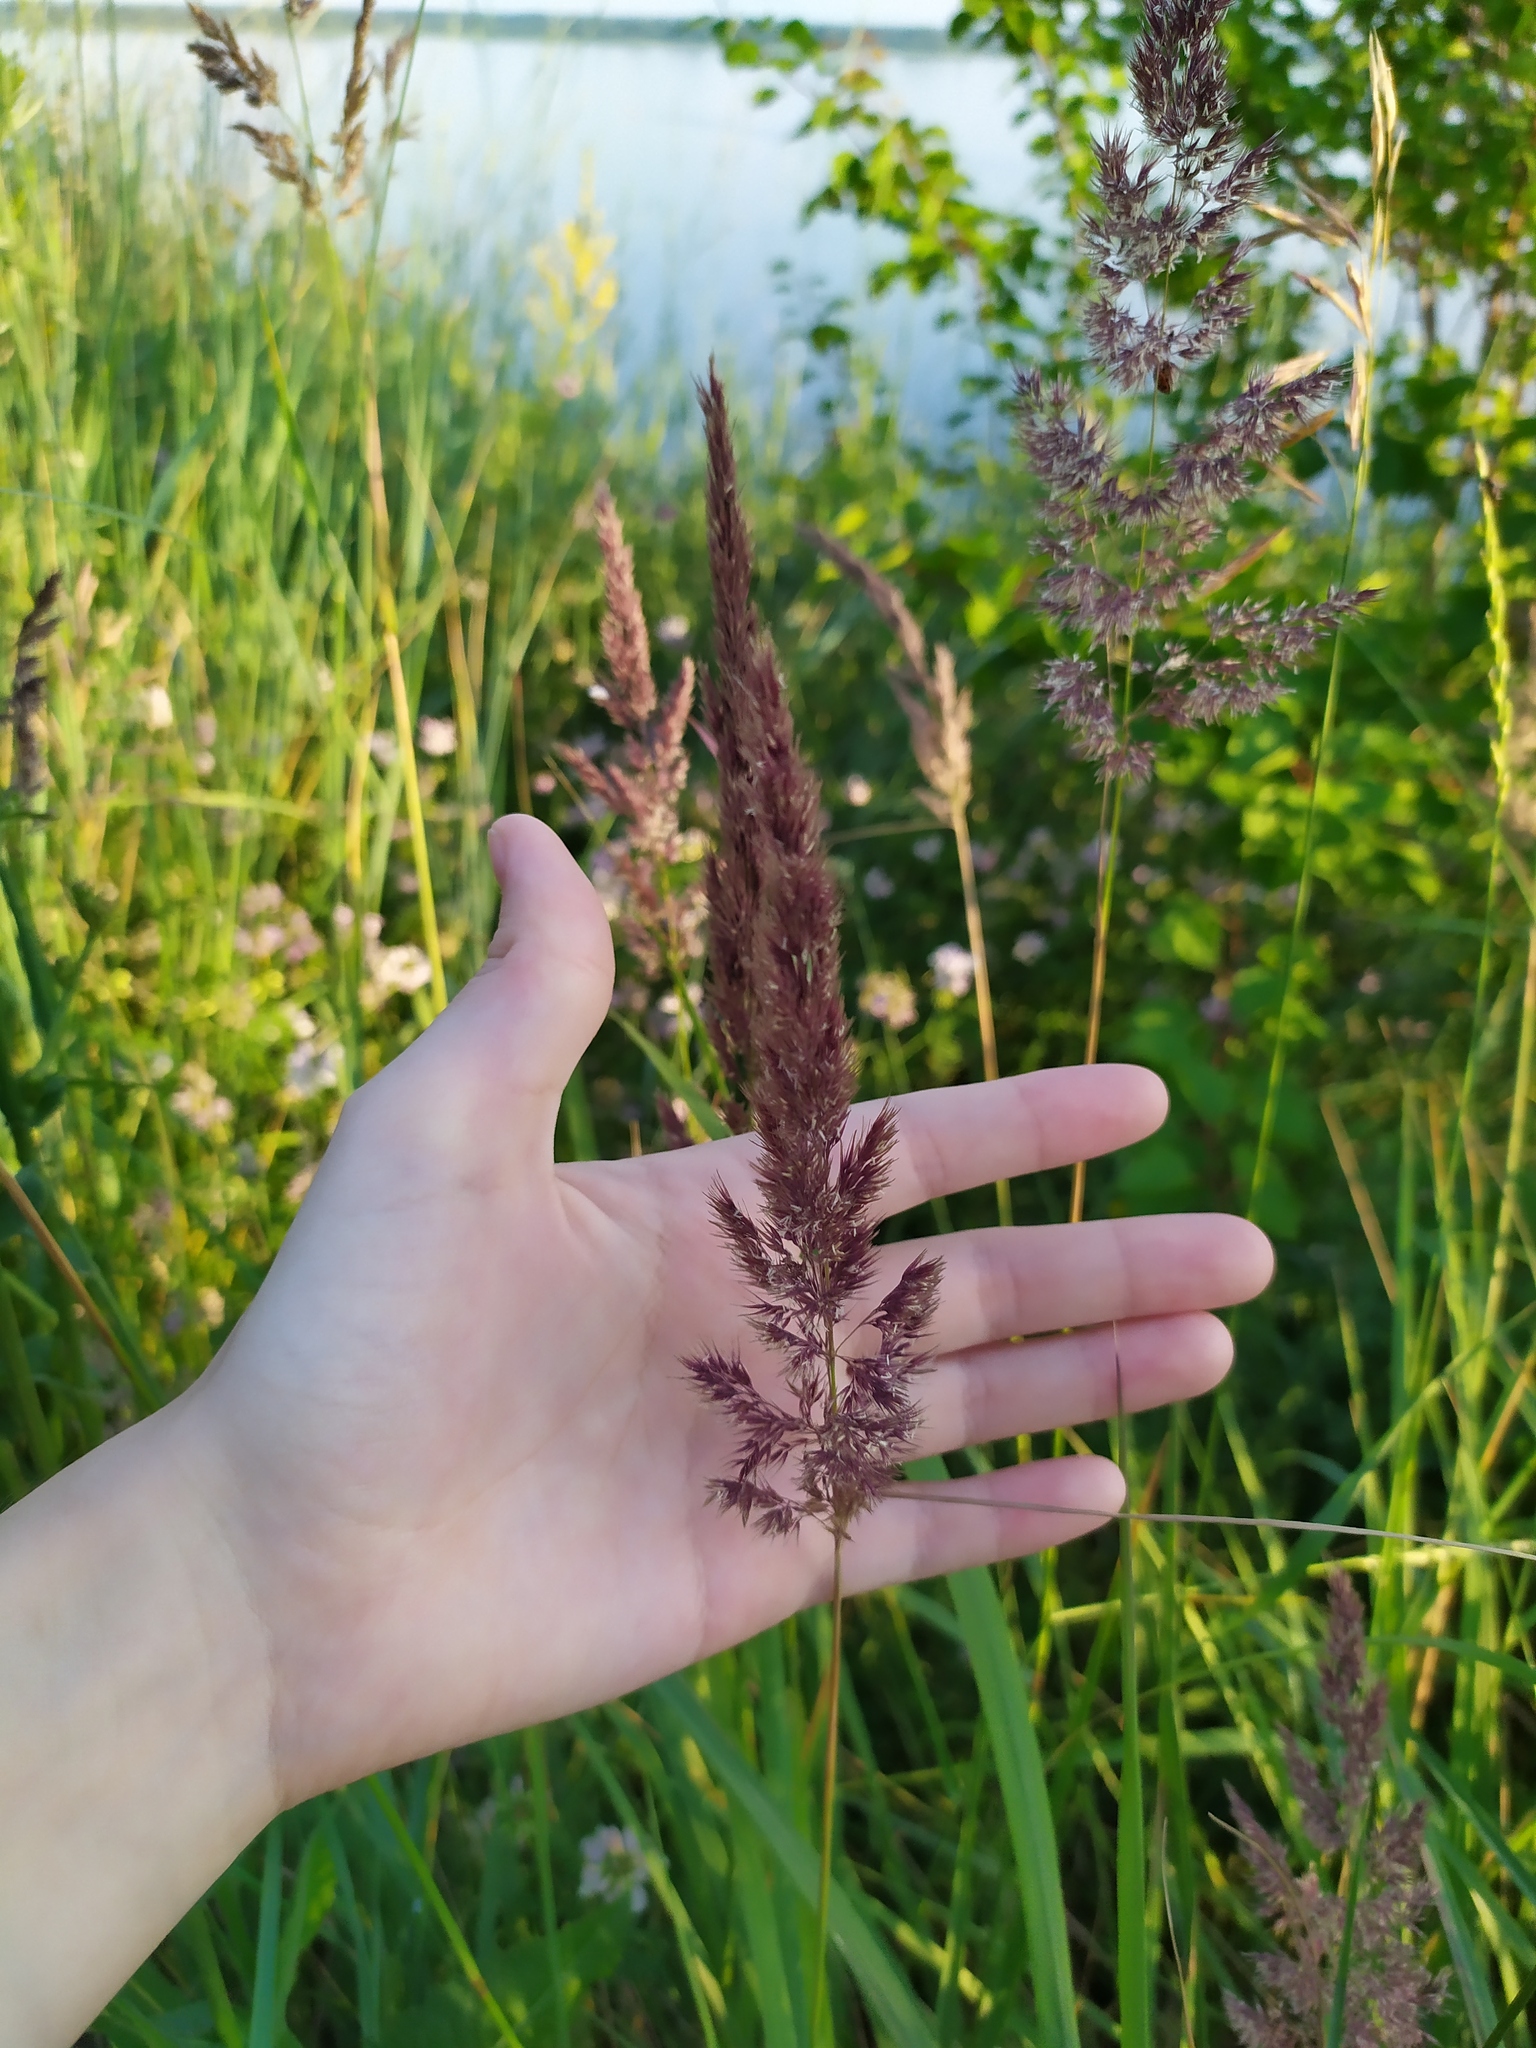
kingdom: Plantae
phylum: Tracheophyta
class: Liliopsida
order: Poales
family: Poaceae
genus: Calamagrostis
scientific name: Calamagrostis epigejos
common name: Wood small-reed
